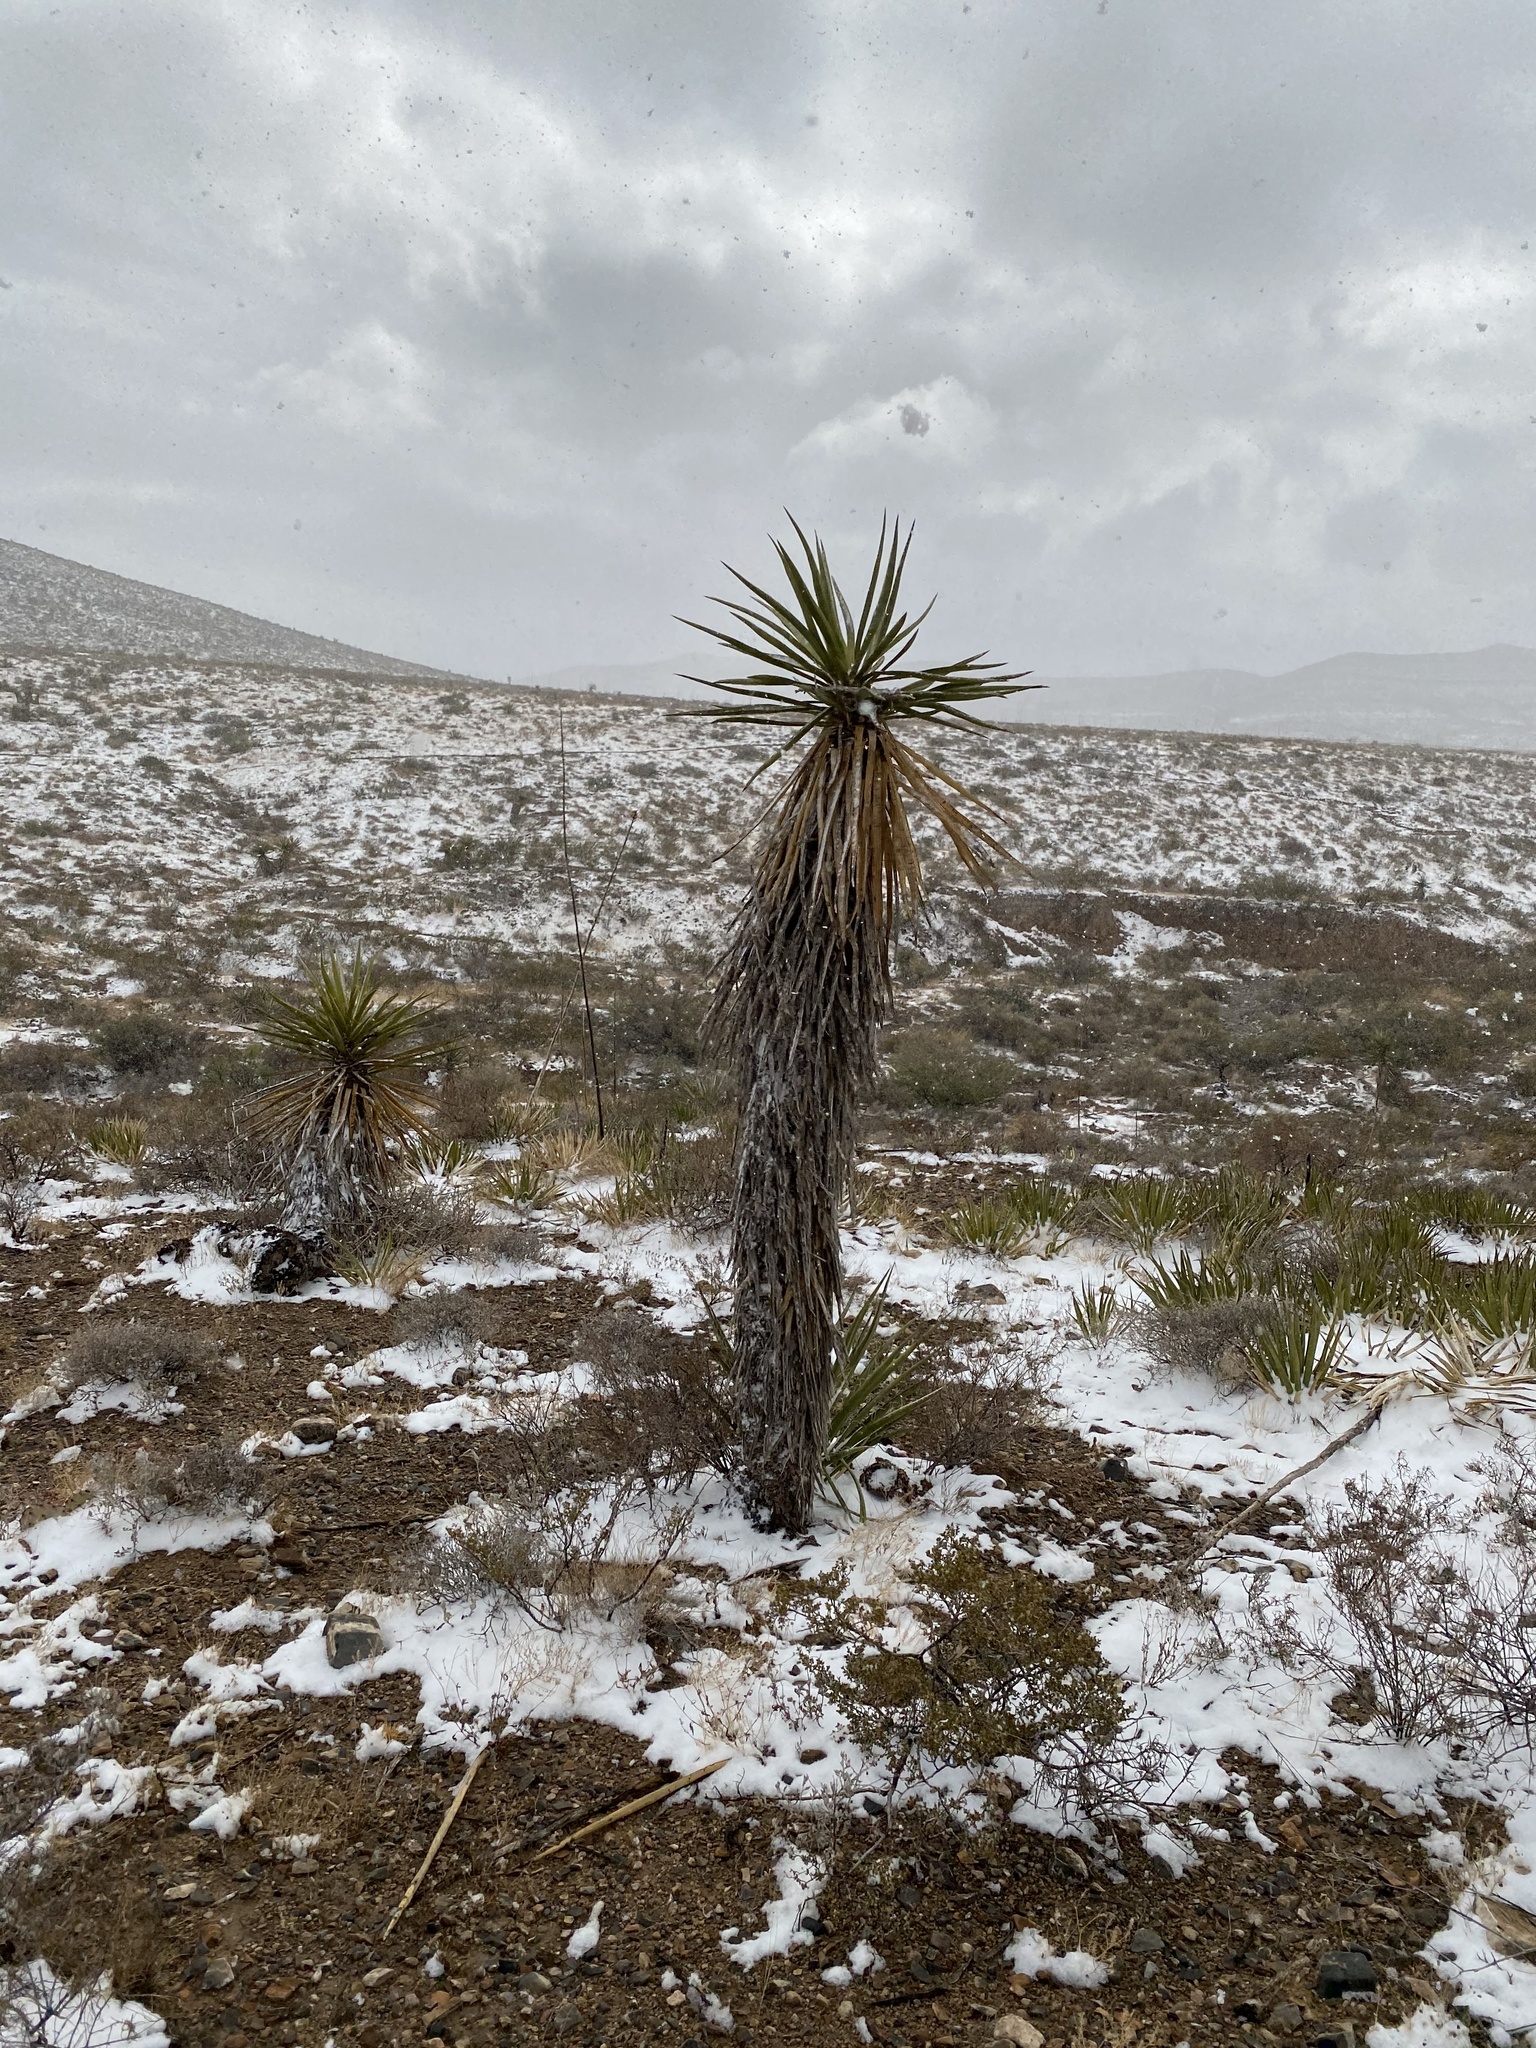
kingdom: Plantae
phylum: Tracheophyta
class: Liliopsida
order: Asparagales
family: Asparagaceae
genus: Yucca
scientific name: Yucca treculiana
